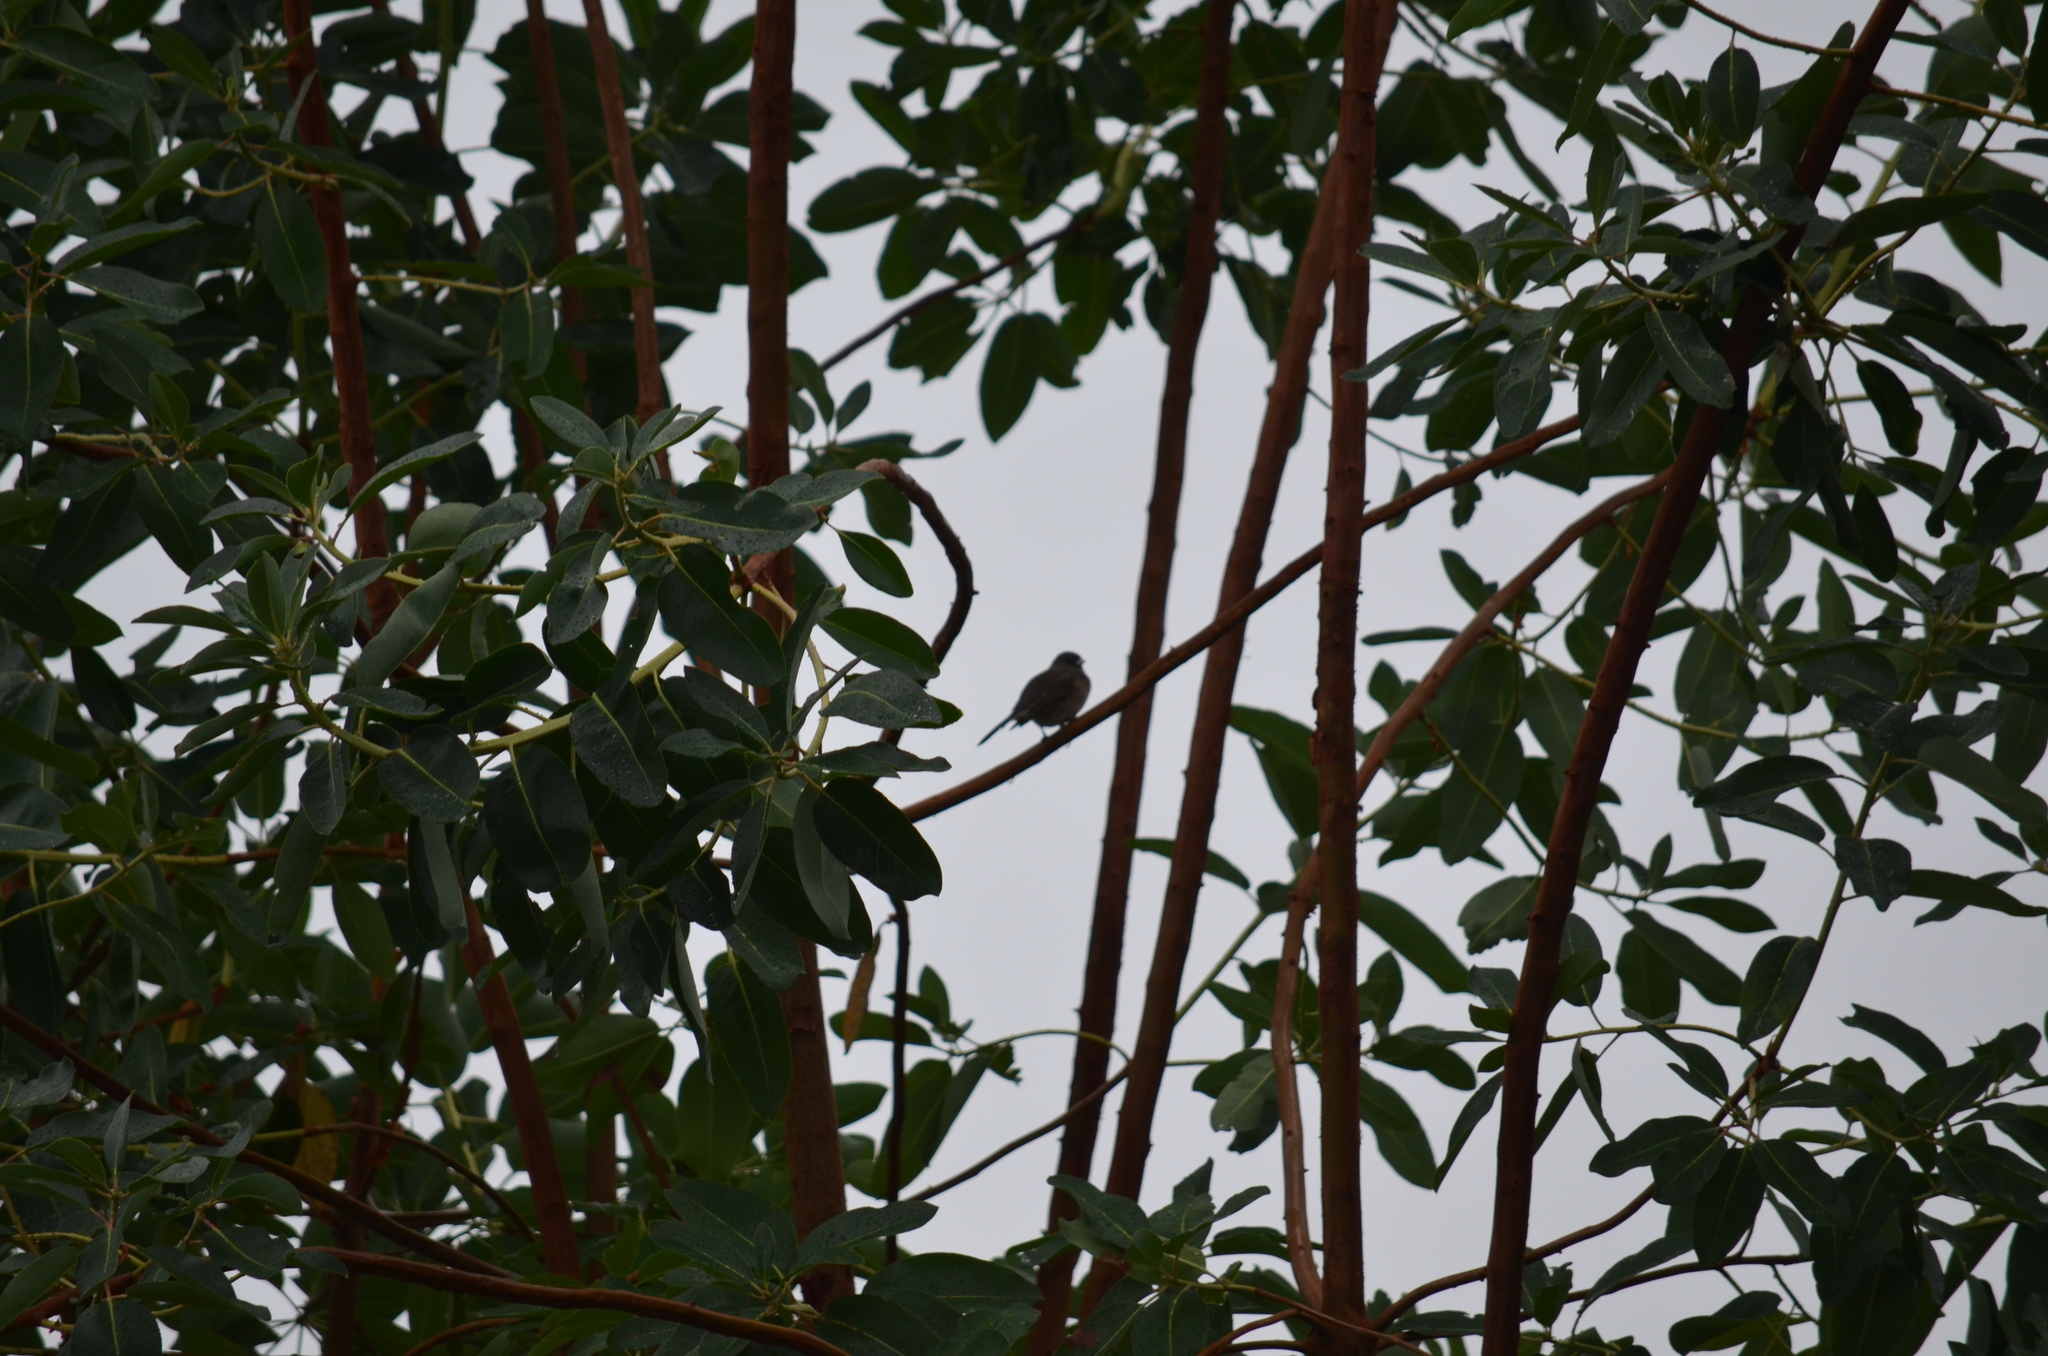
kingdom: Animalia
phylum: Chordata
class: Aves
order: Passeriformes
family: Passerellidae
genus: Junco
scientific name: Junco hyemalis
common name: Dark-eyed junco
